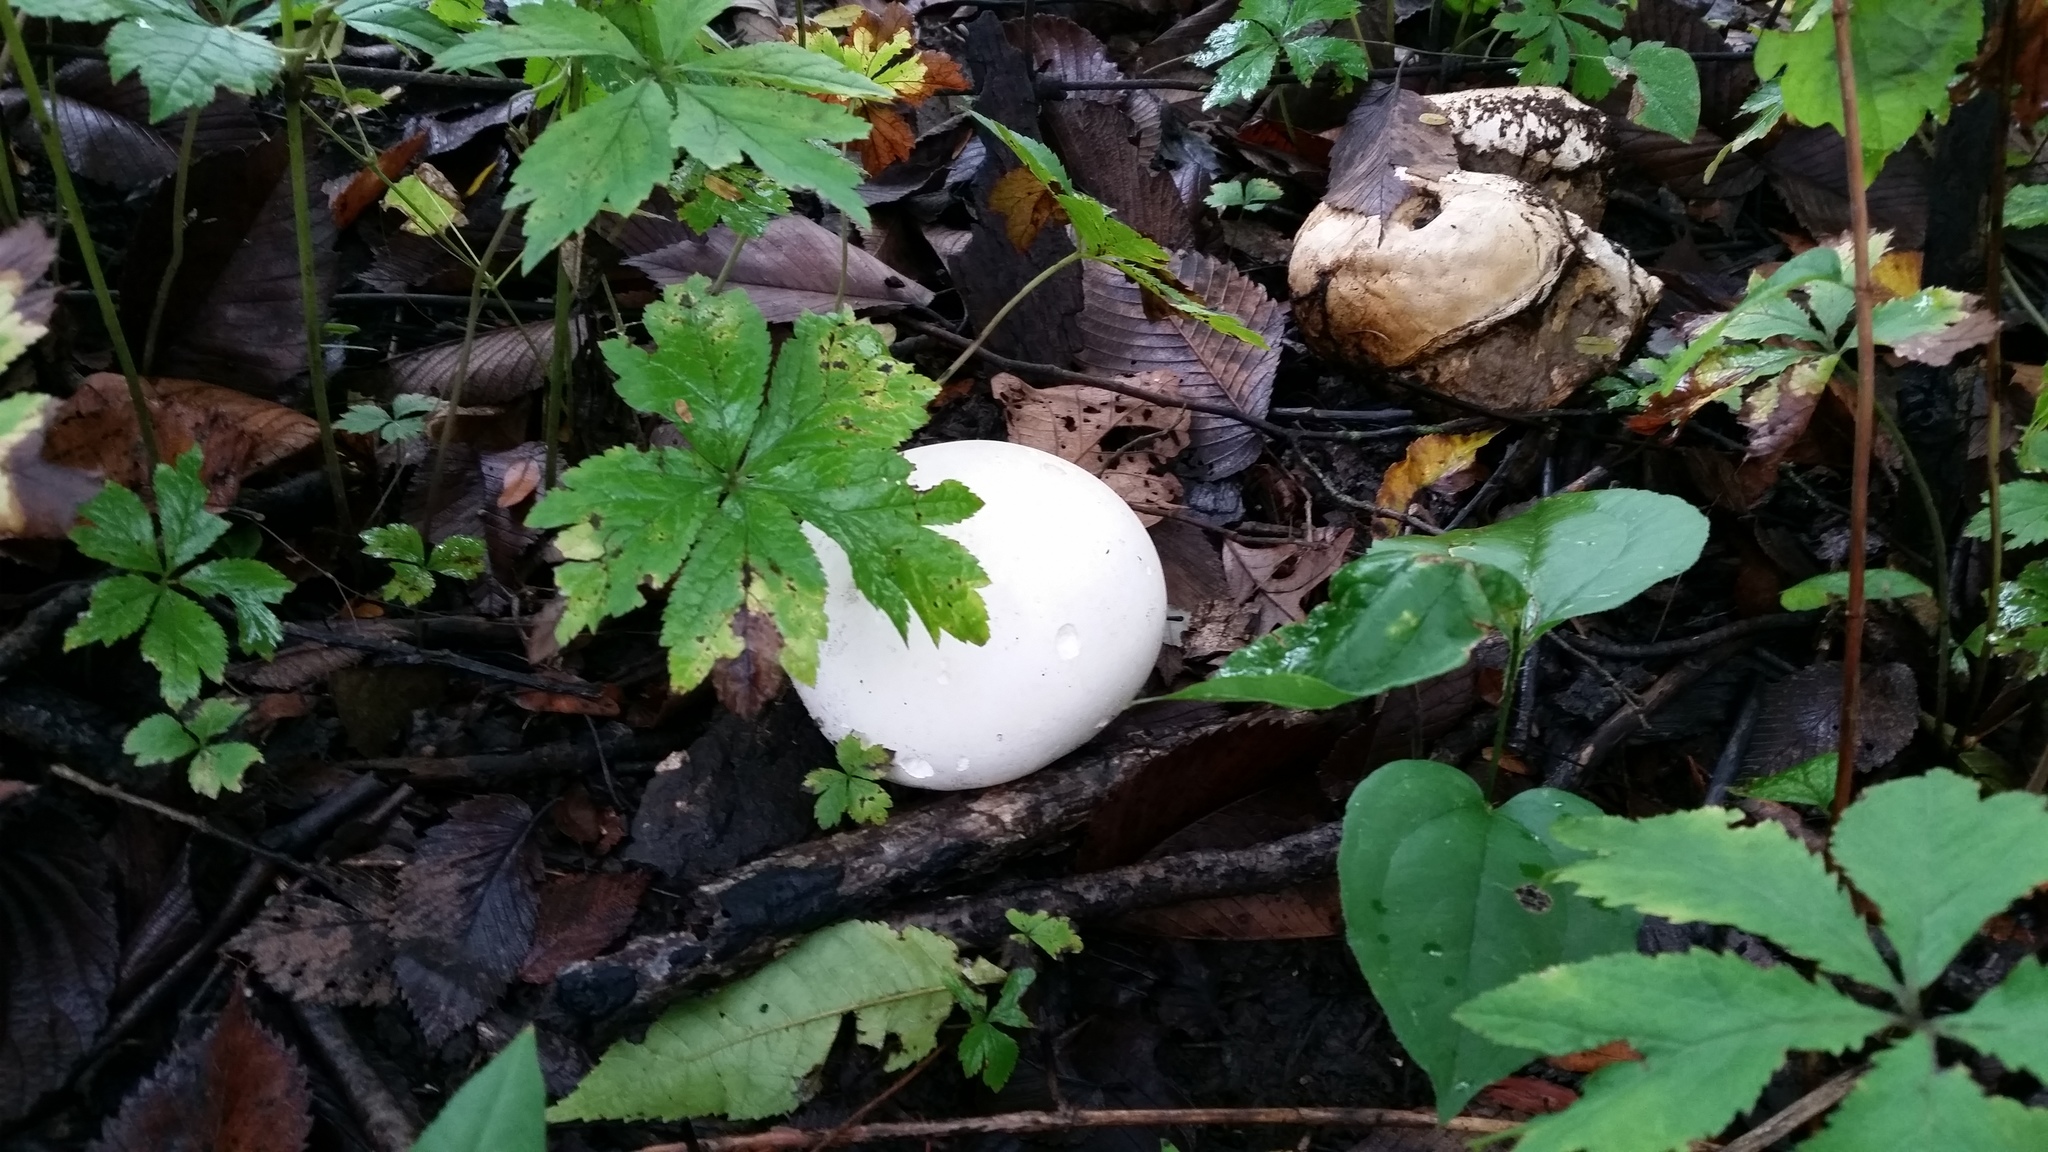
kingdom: Fungi
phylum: Basidiomycota
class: Agaricomycetes
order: Agaricales
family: Lycoperdaceae
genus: Calvatia
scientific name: Calvatia gigantea
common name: Giant puffball
